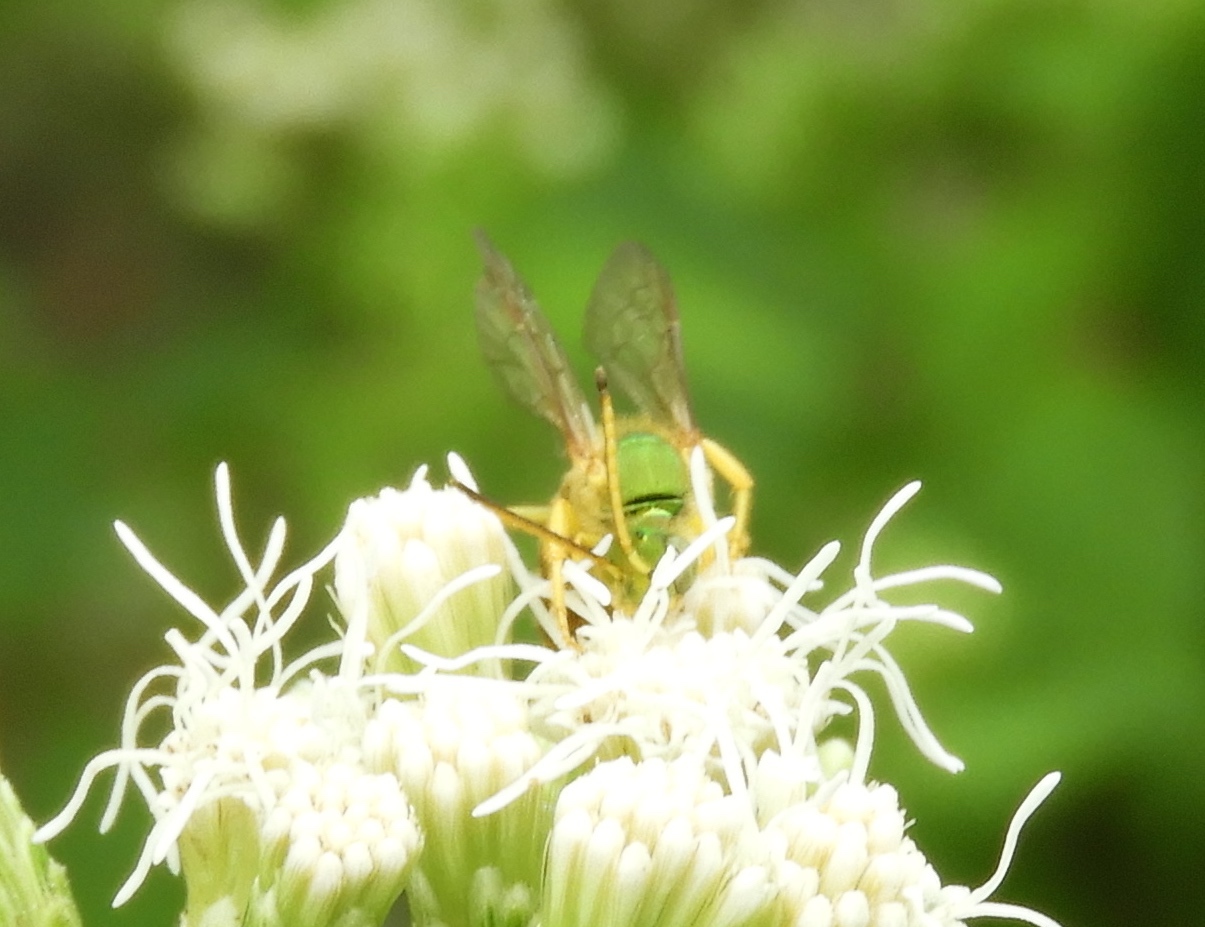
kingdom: Animalia
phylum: Arthropoda
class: Insecta
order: Hymenoptera
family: Halictidae
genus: Agapostemon
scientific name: Agapostemon nasutus
